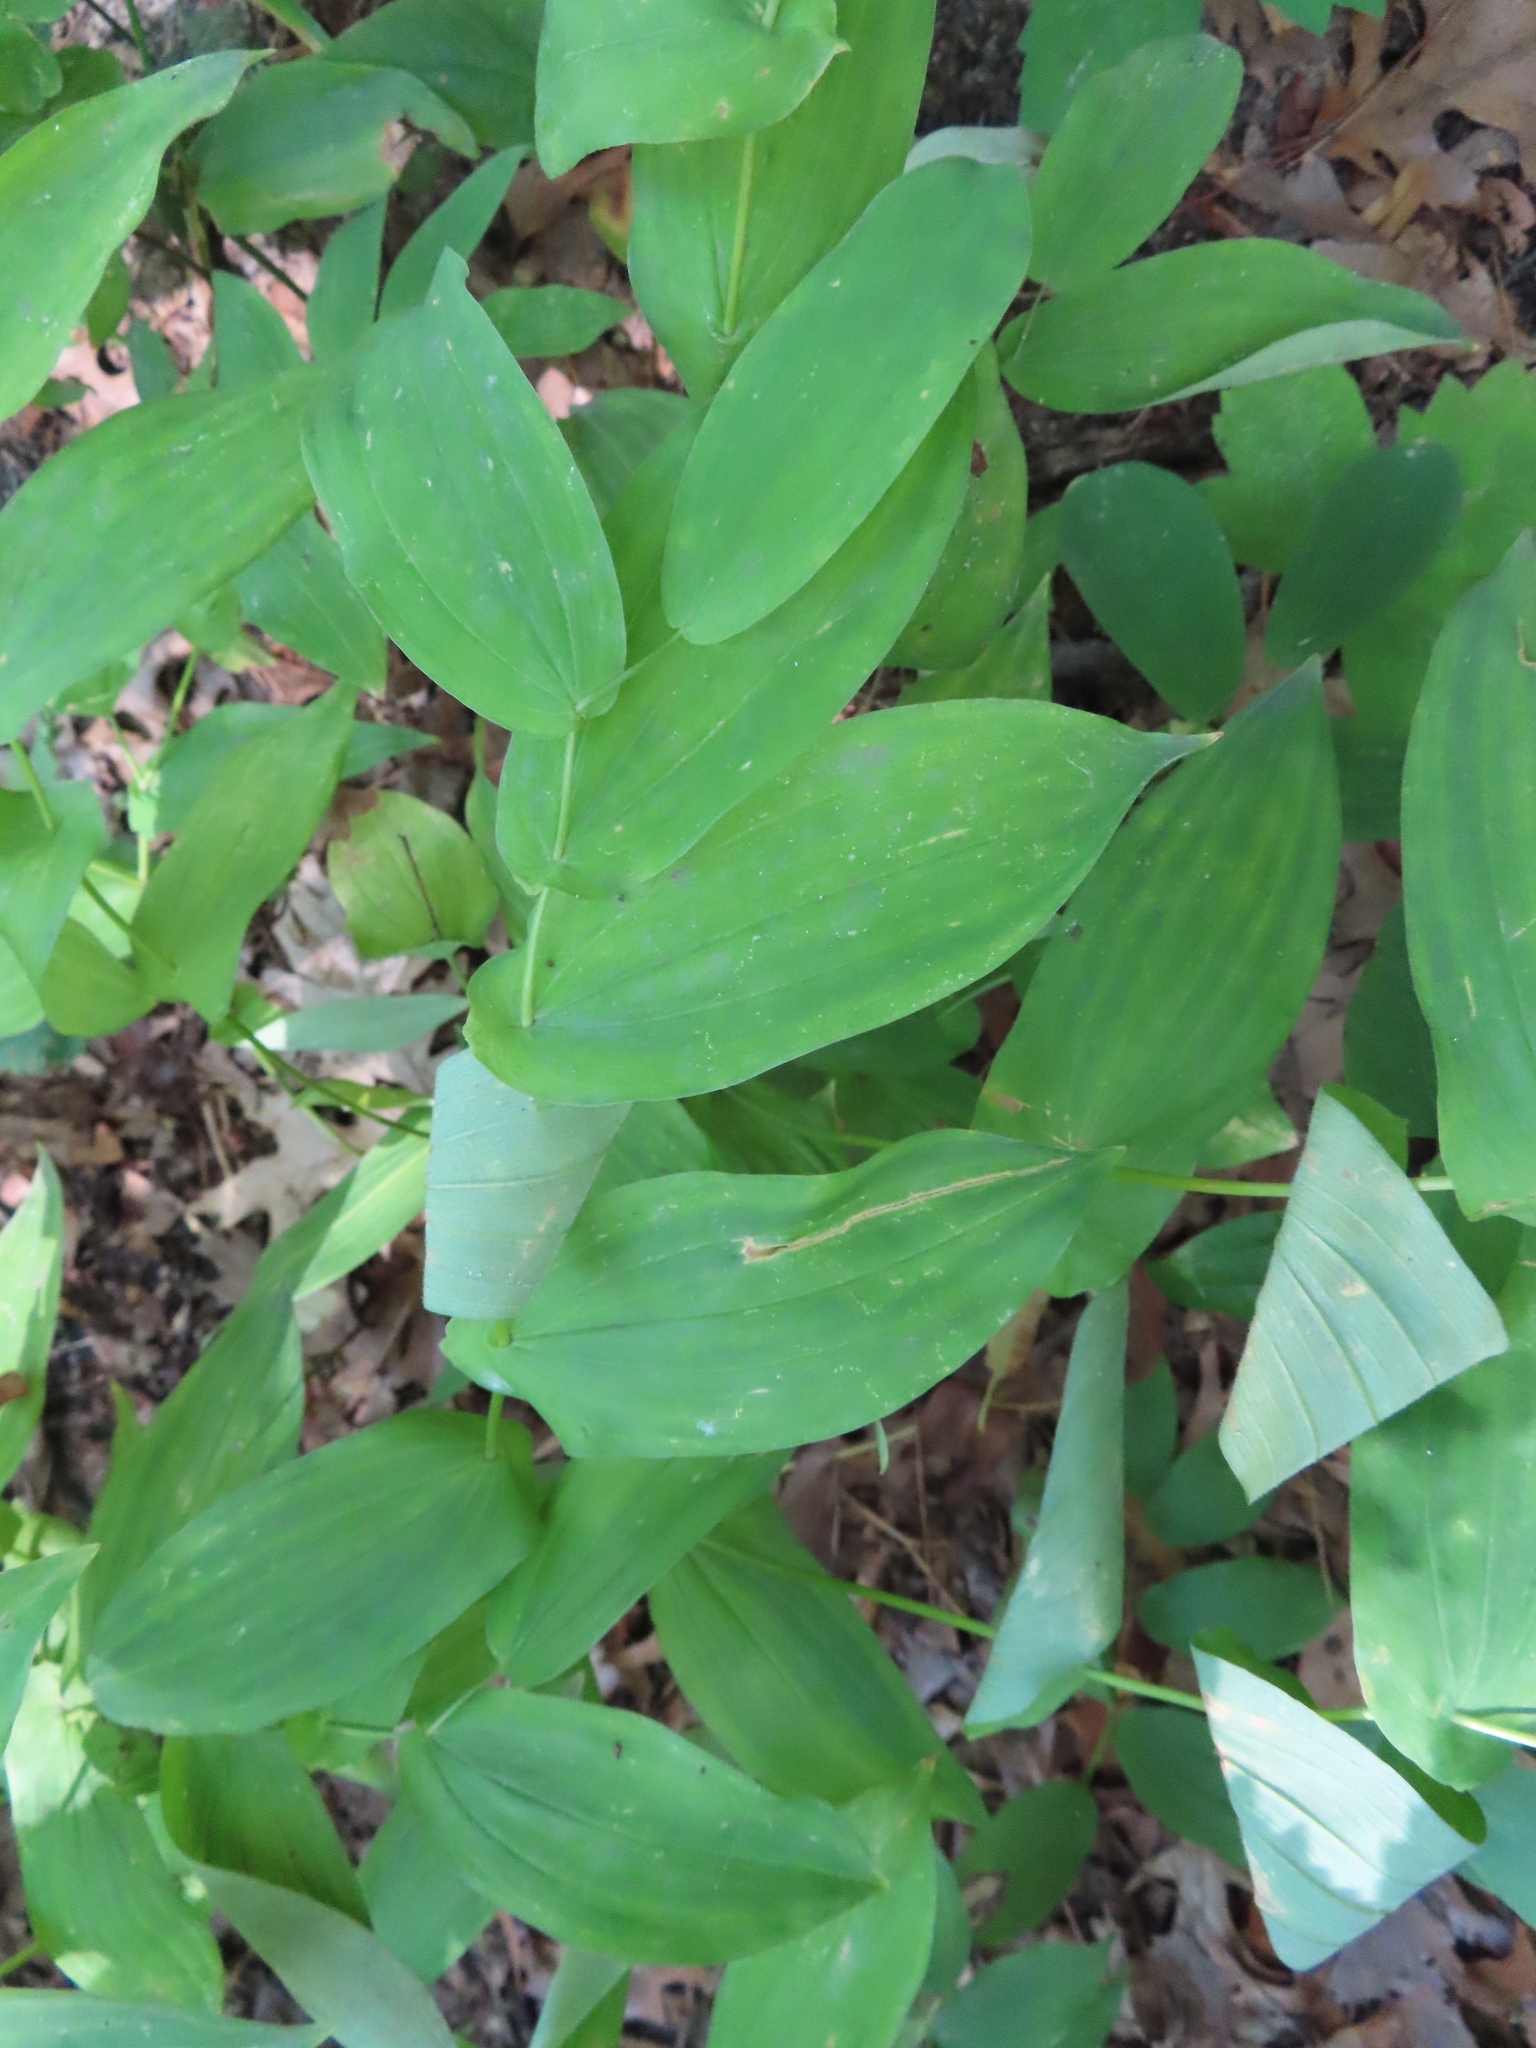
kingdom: Plantae
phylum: Tracheophyta
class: Liliopsida
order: Liliales
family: Colchicaceae
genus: Uvularia
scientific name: Uvularia grandiflora
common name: Bellwort
